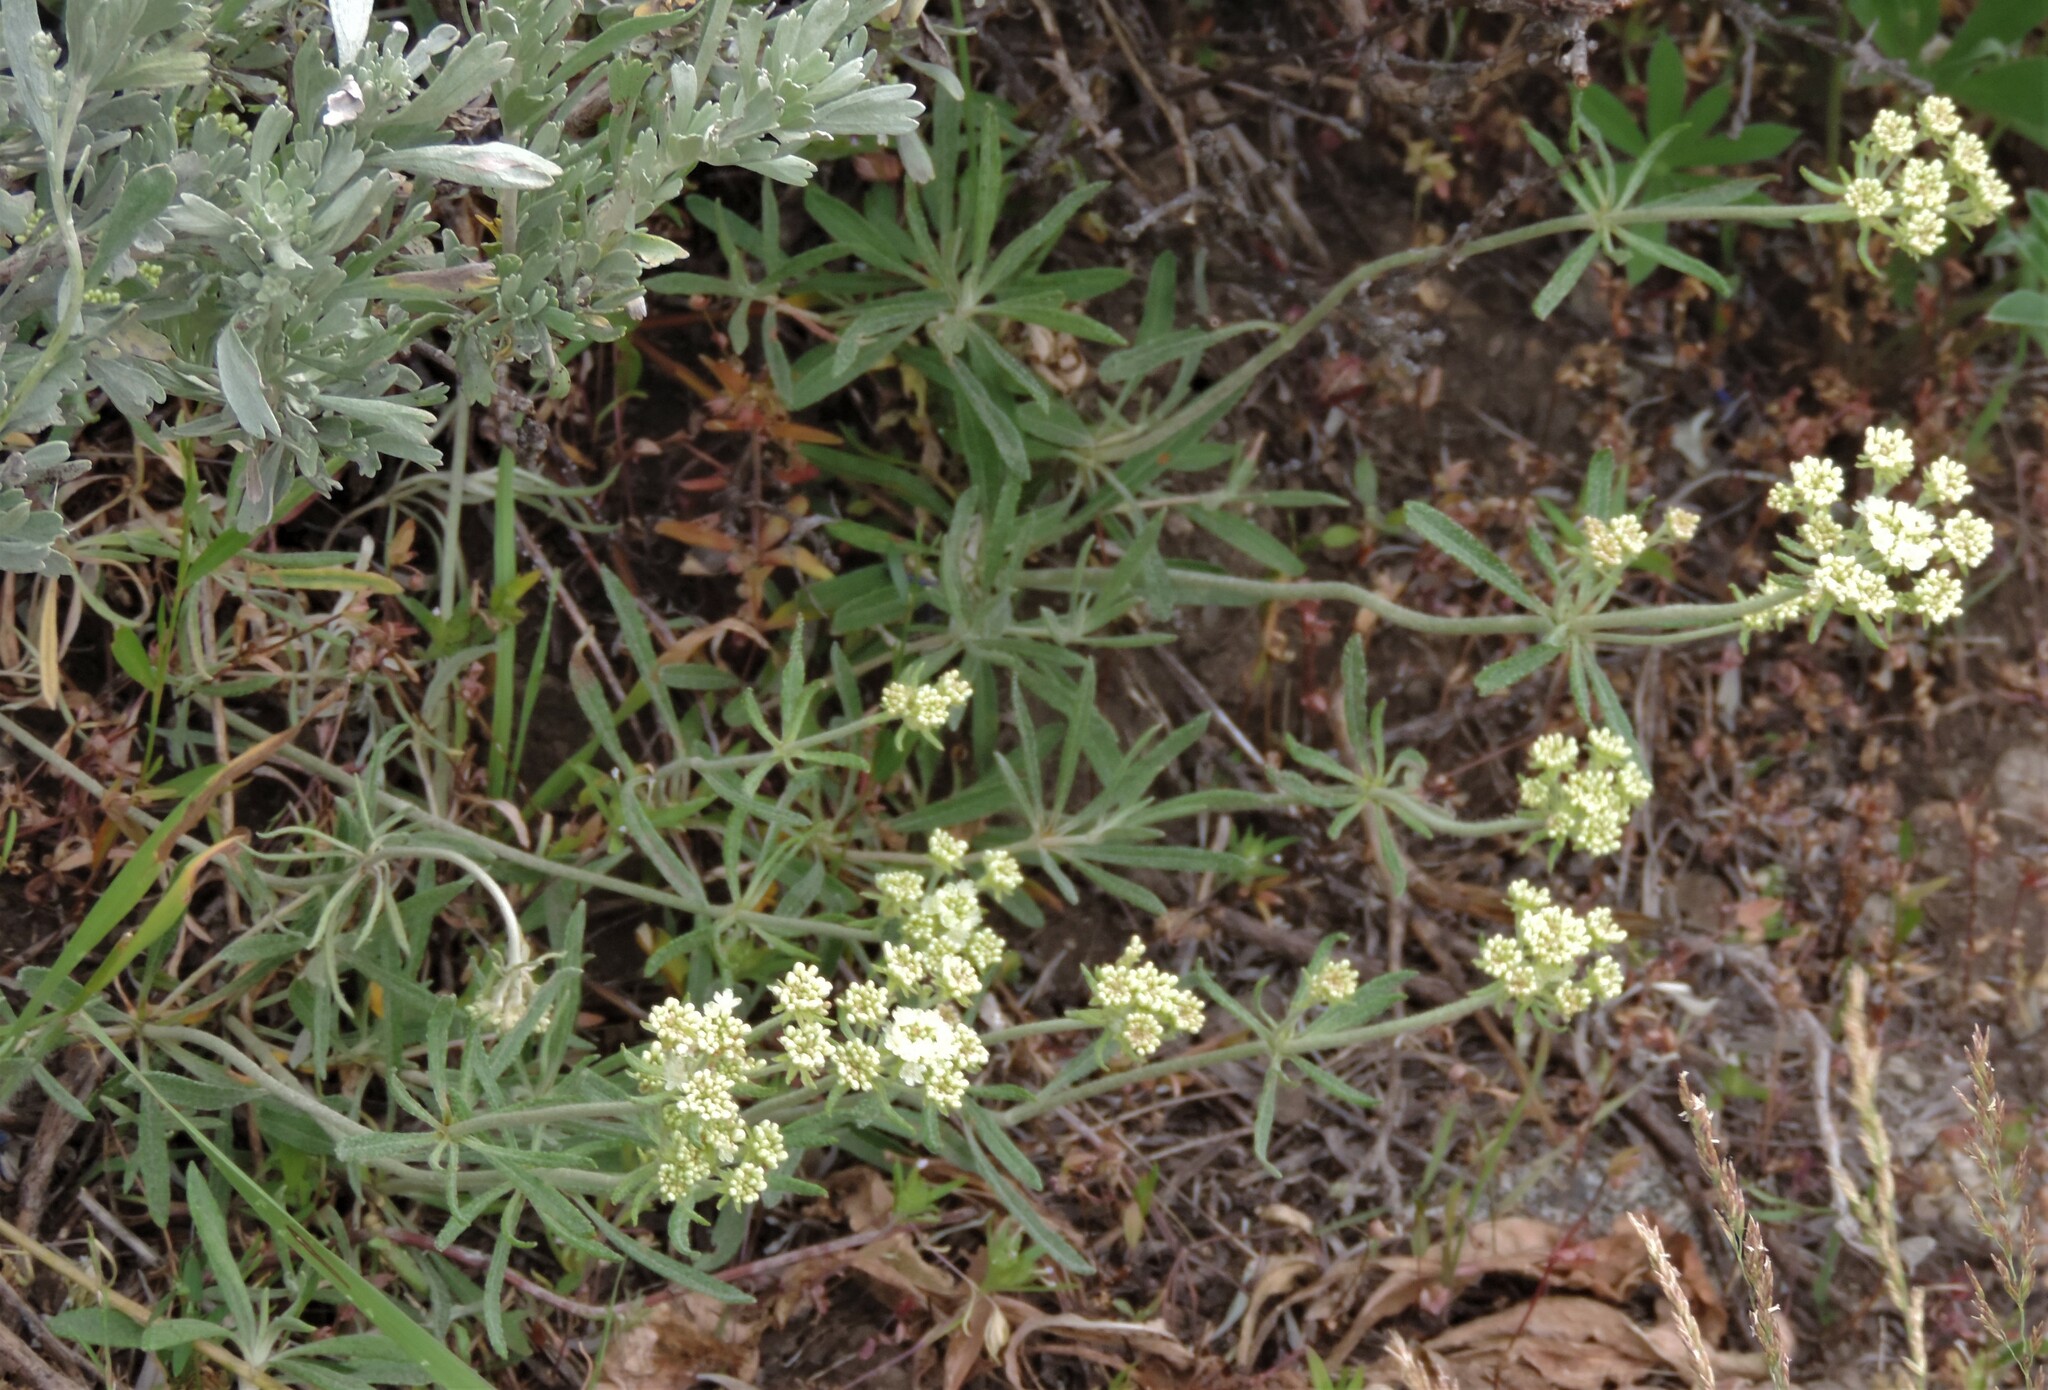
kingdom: Plantae
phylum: Tracheophyta
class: Magnoliopsida
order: Caryophyllales
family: Polygonaceae
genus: Eriogonum
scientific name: Eriogonum heracleoides
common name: Wyeth's buckwheat
